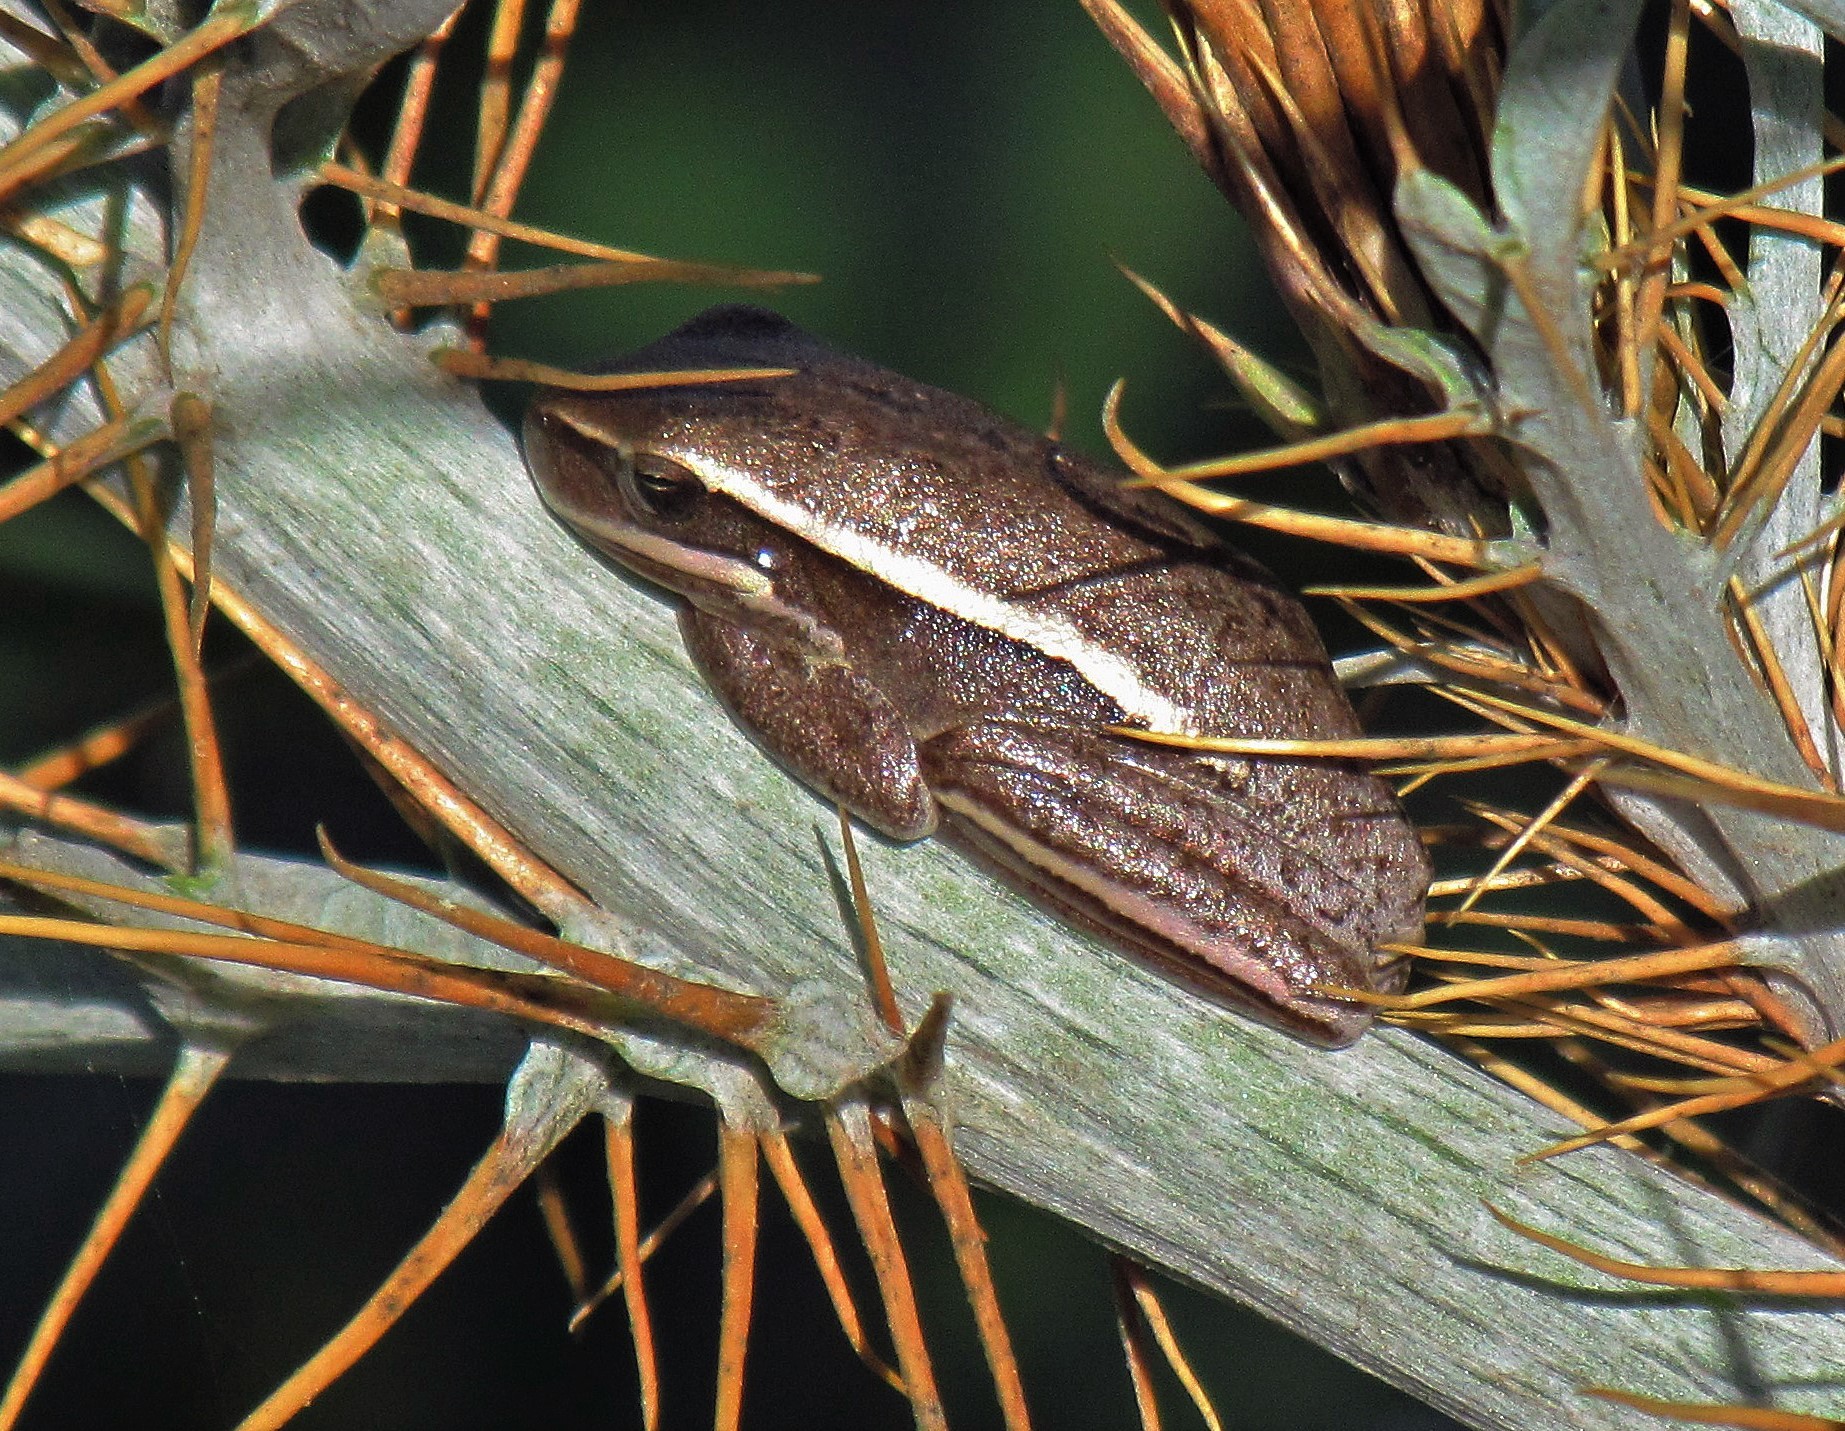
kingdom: Animalia
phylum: Chordata
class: Amphibia
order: Anura
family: Hylidae
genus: Boana
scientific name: Boana pulchella
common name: Montevideo treefrog
